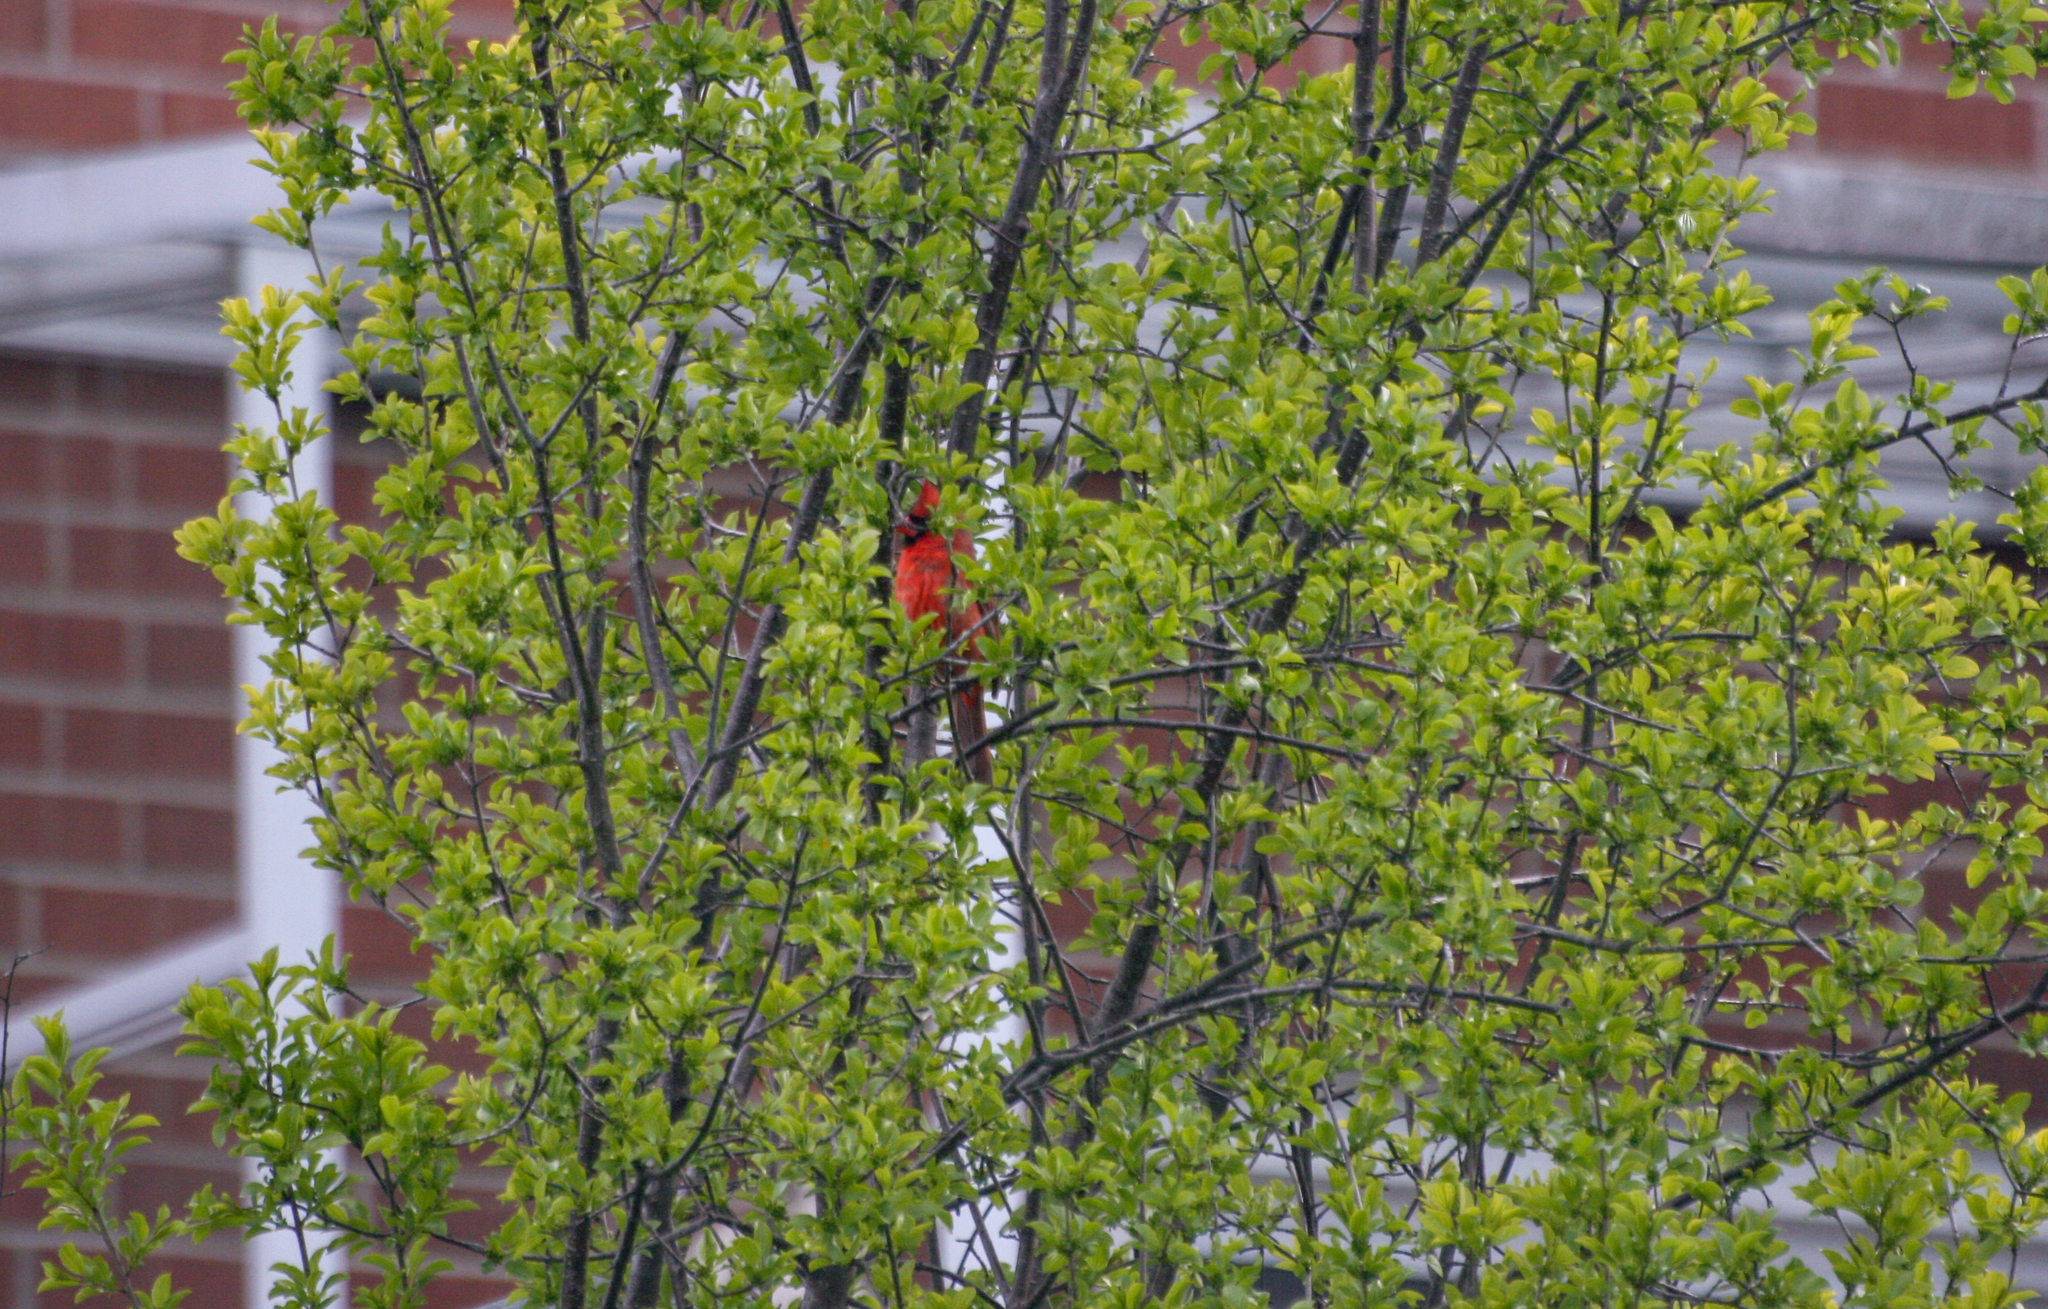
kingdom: Animalia
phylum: Chordata
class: Aves
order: Passeriformes
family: Cardinalidae
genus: Cardinalis
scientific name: Cardinalis cardinalis
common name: Northern cardinal
